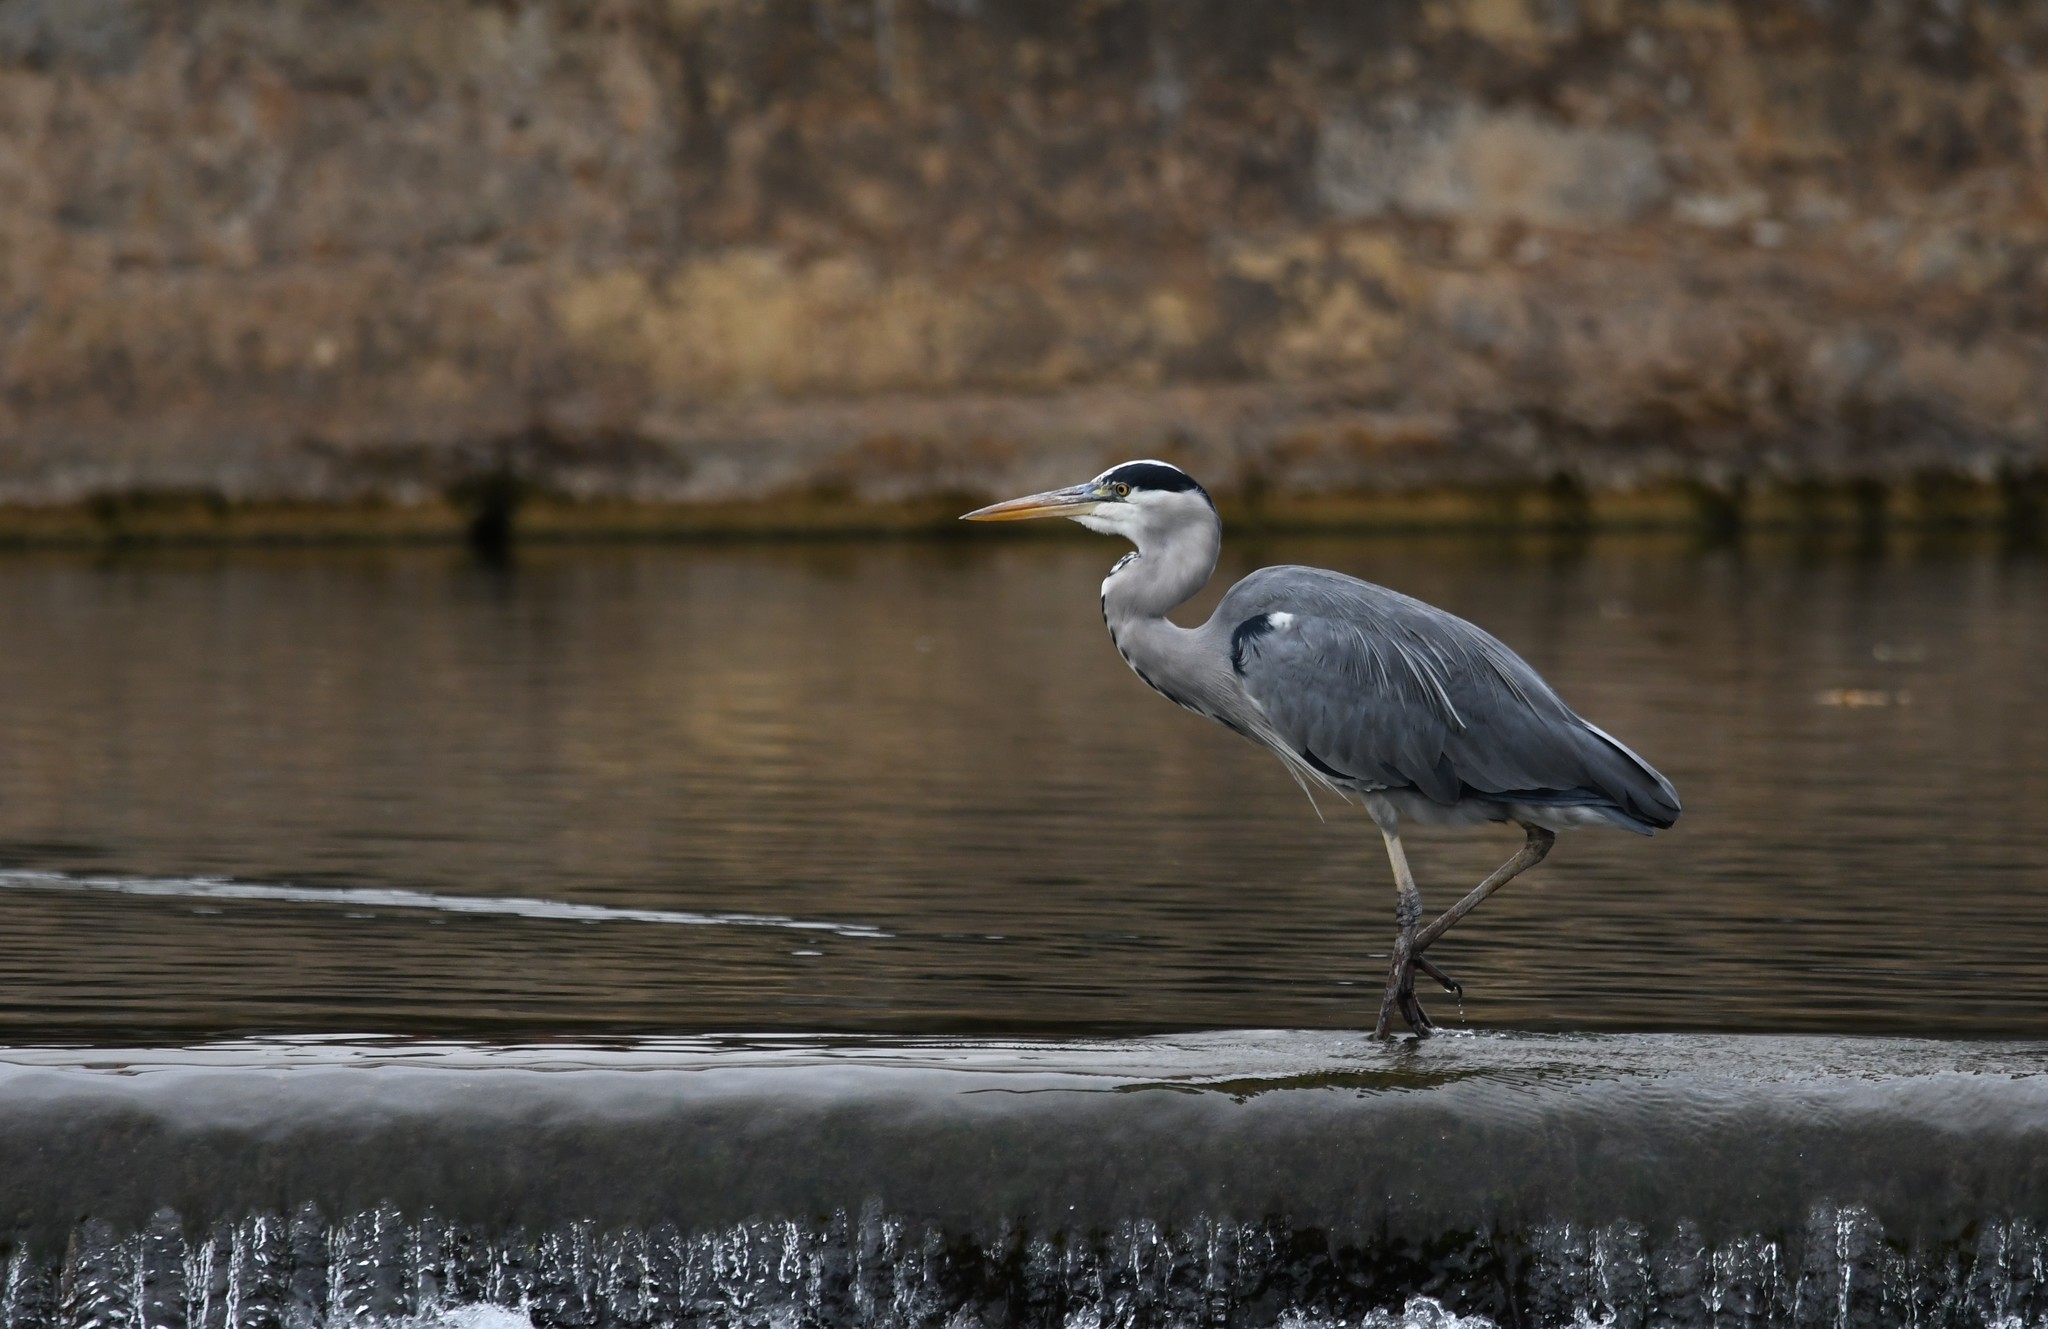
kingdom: Animalia
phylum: Chordata
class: Aves
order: Pelecaniformes
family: Ardeidae
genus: Ardea
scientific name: Ardea cinerea
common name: Grey heron
